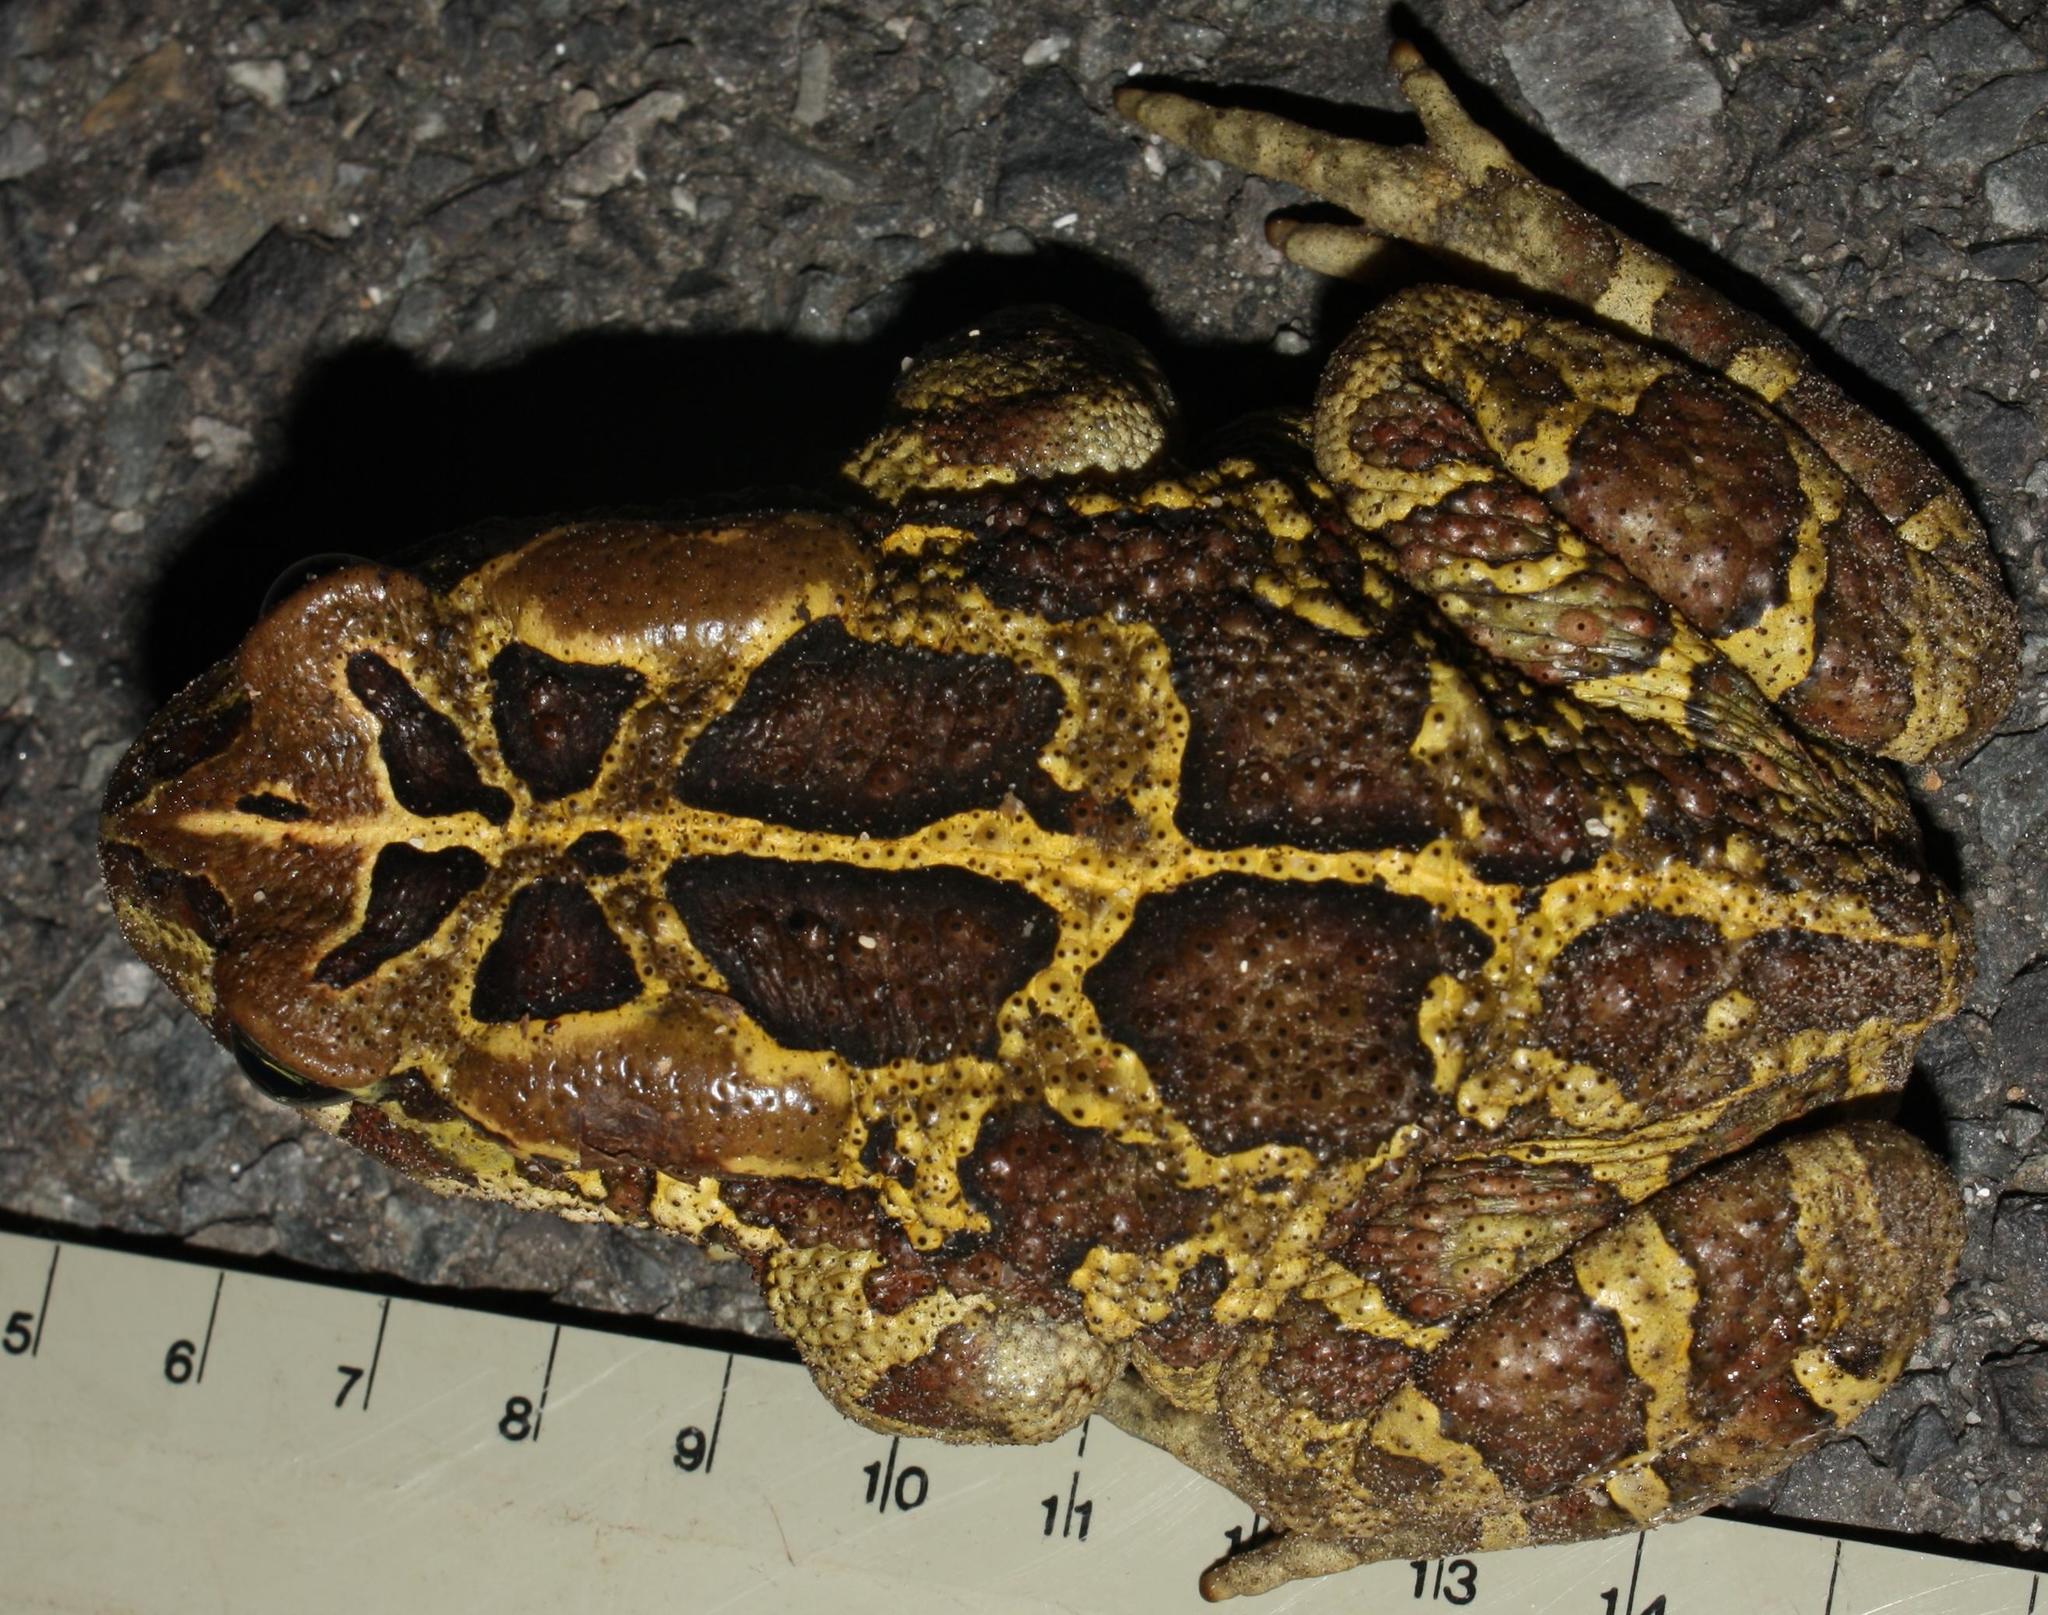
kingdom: Animalia
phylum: Chordata
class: Amphibia
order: Anura
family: Bufonidae
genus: Sclerophrys
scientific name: Sclerophrys pantherina
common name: Panther toad
